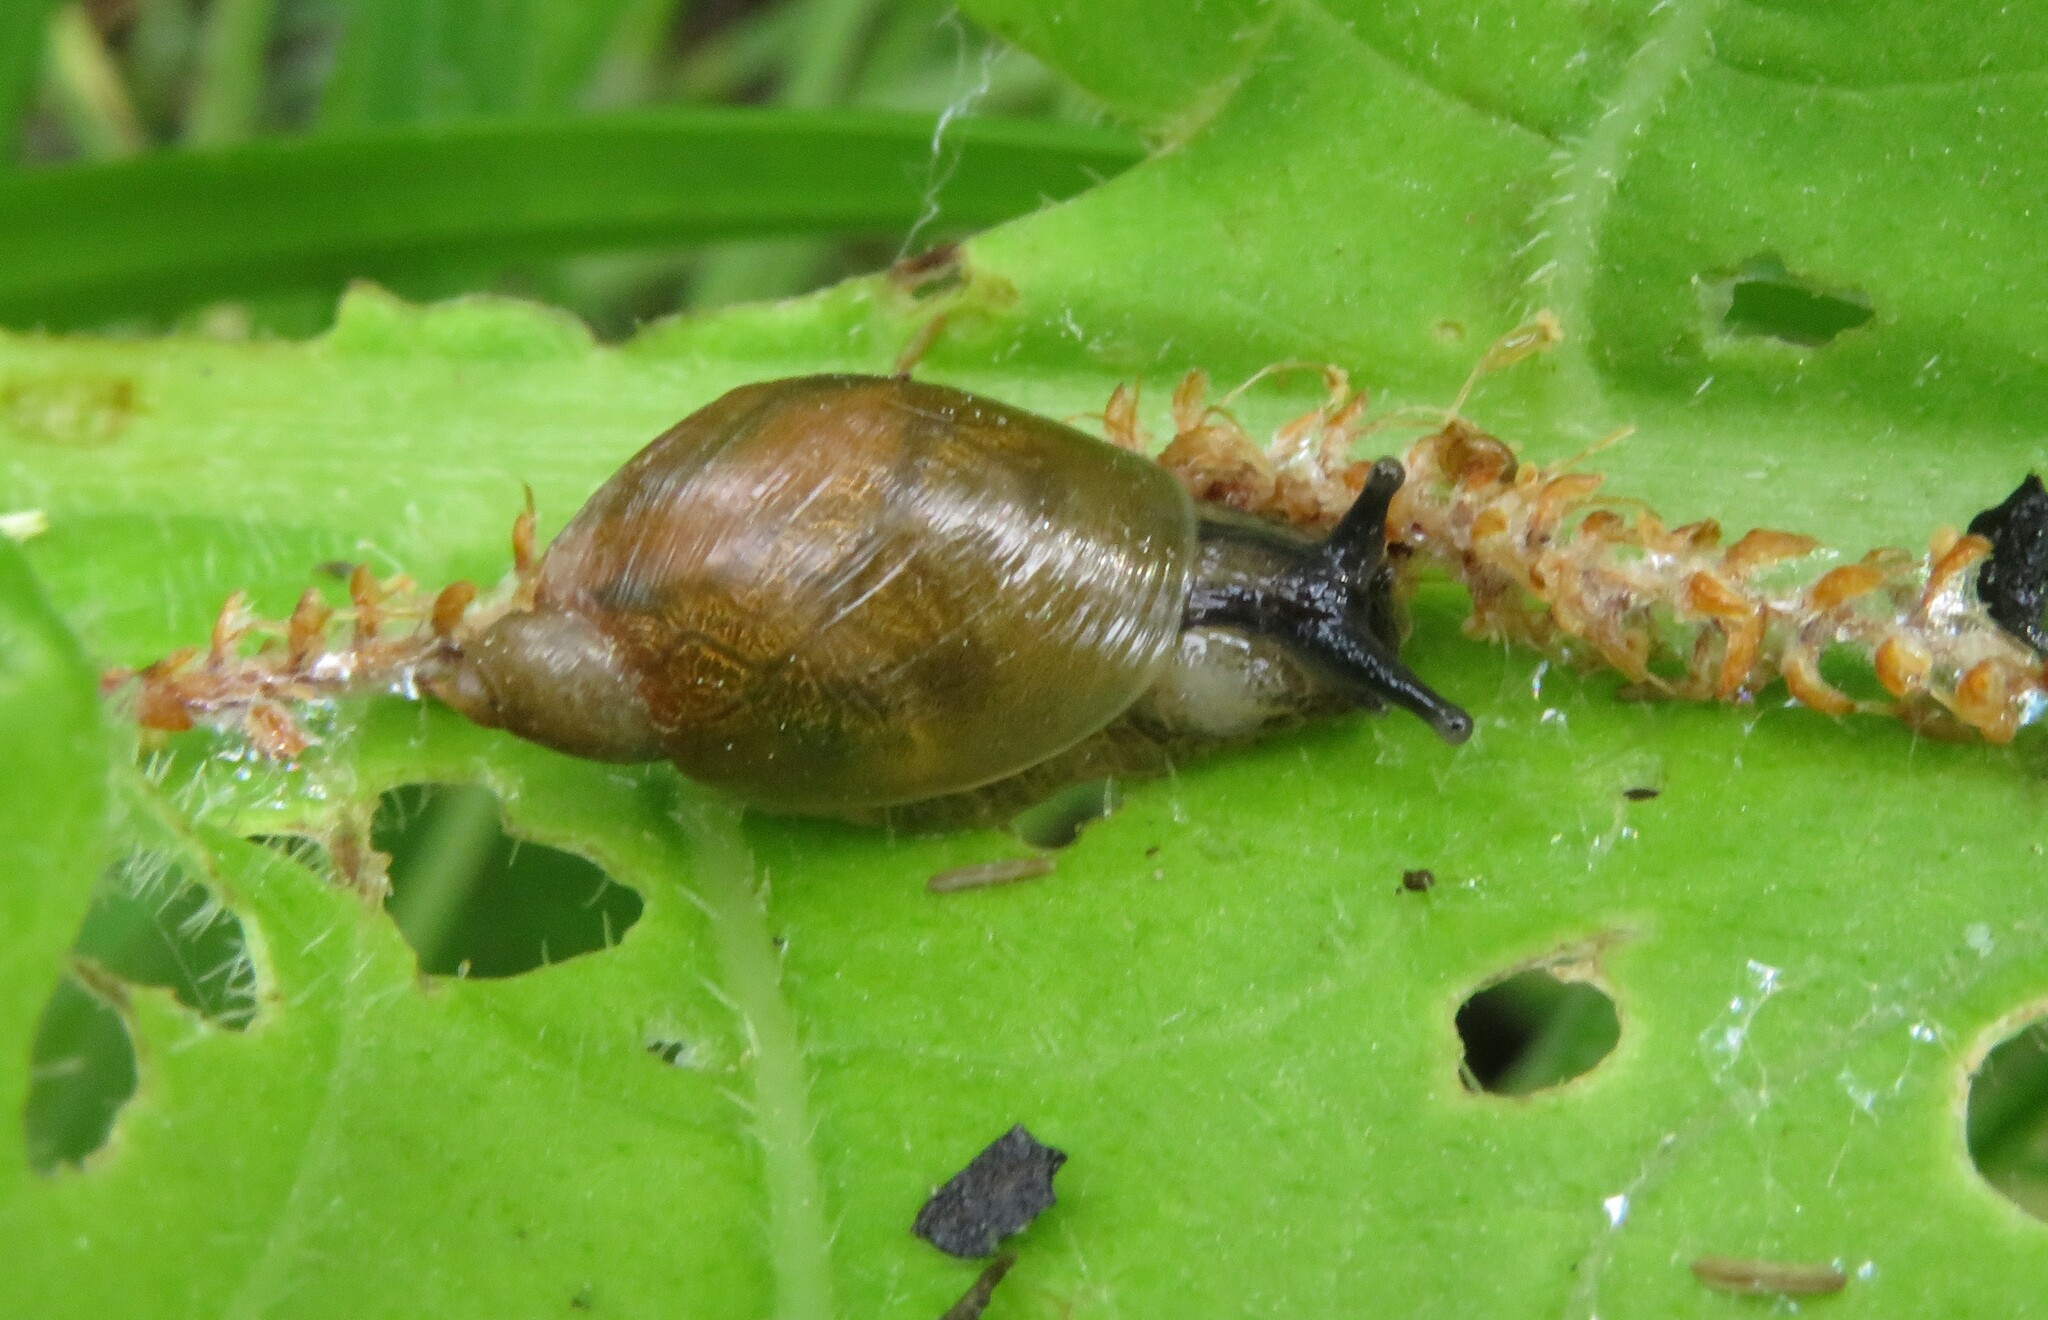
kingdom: Animalia
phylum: Mollusca
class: Gastropoda
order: Stylommatophora
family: Succineidae
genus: Succinea
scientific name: Succinea putris
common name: European ambersnail
